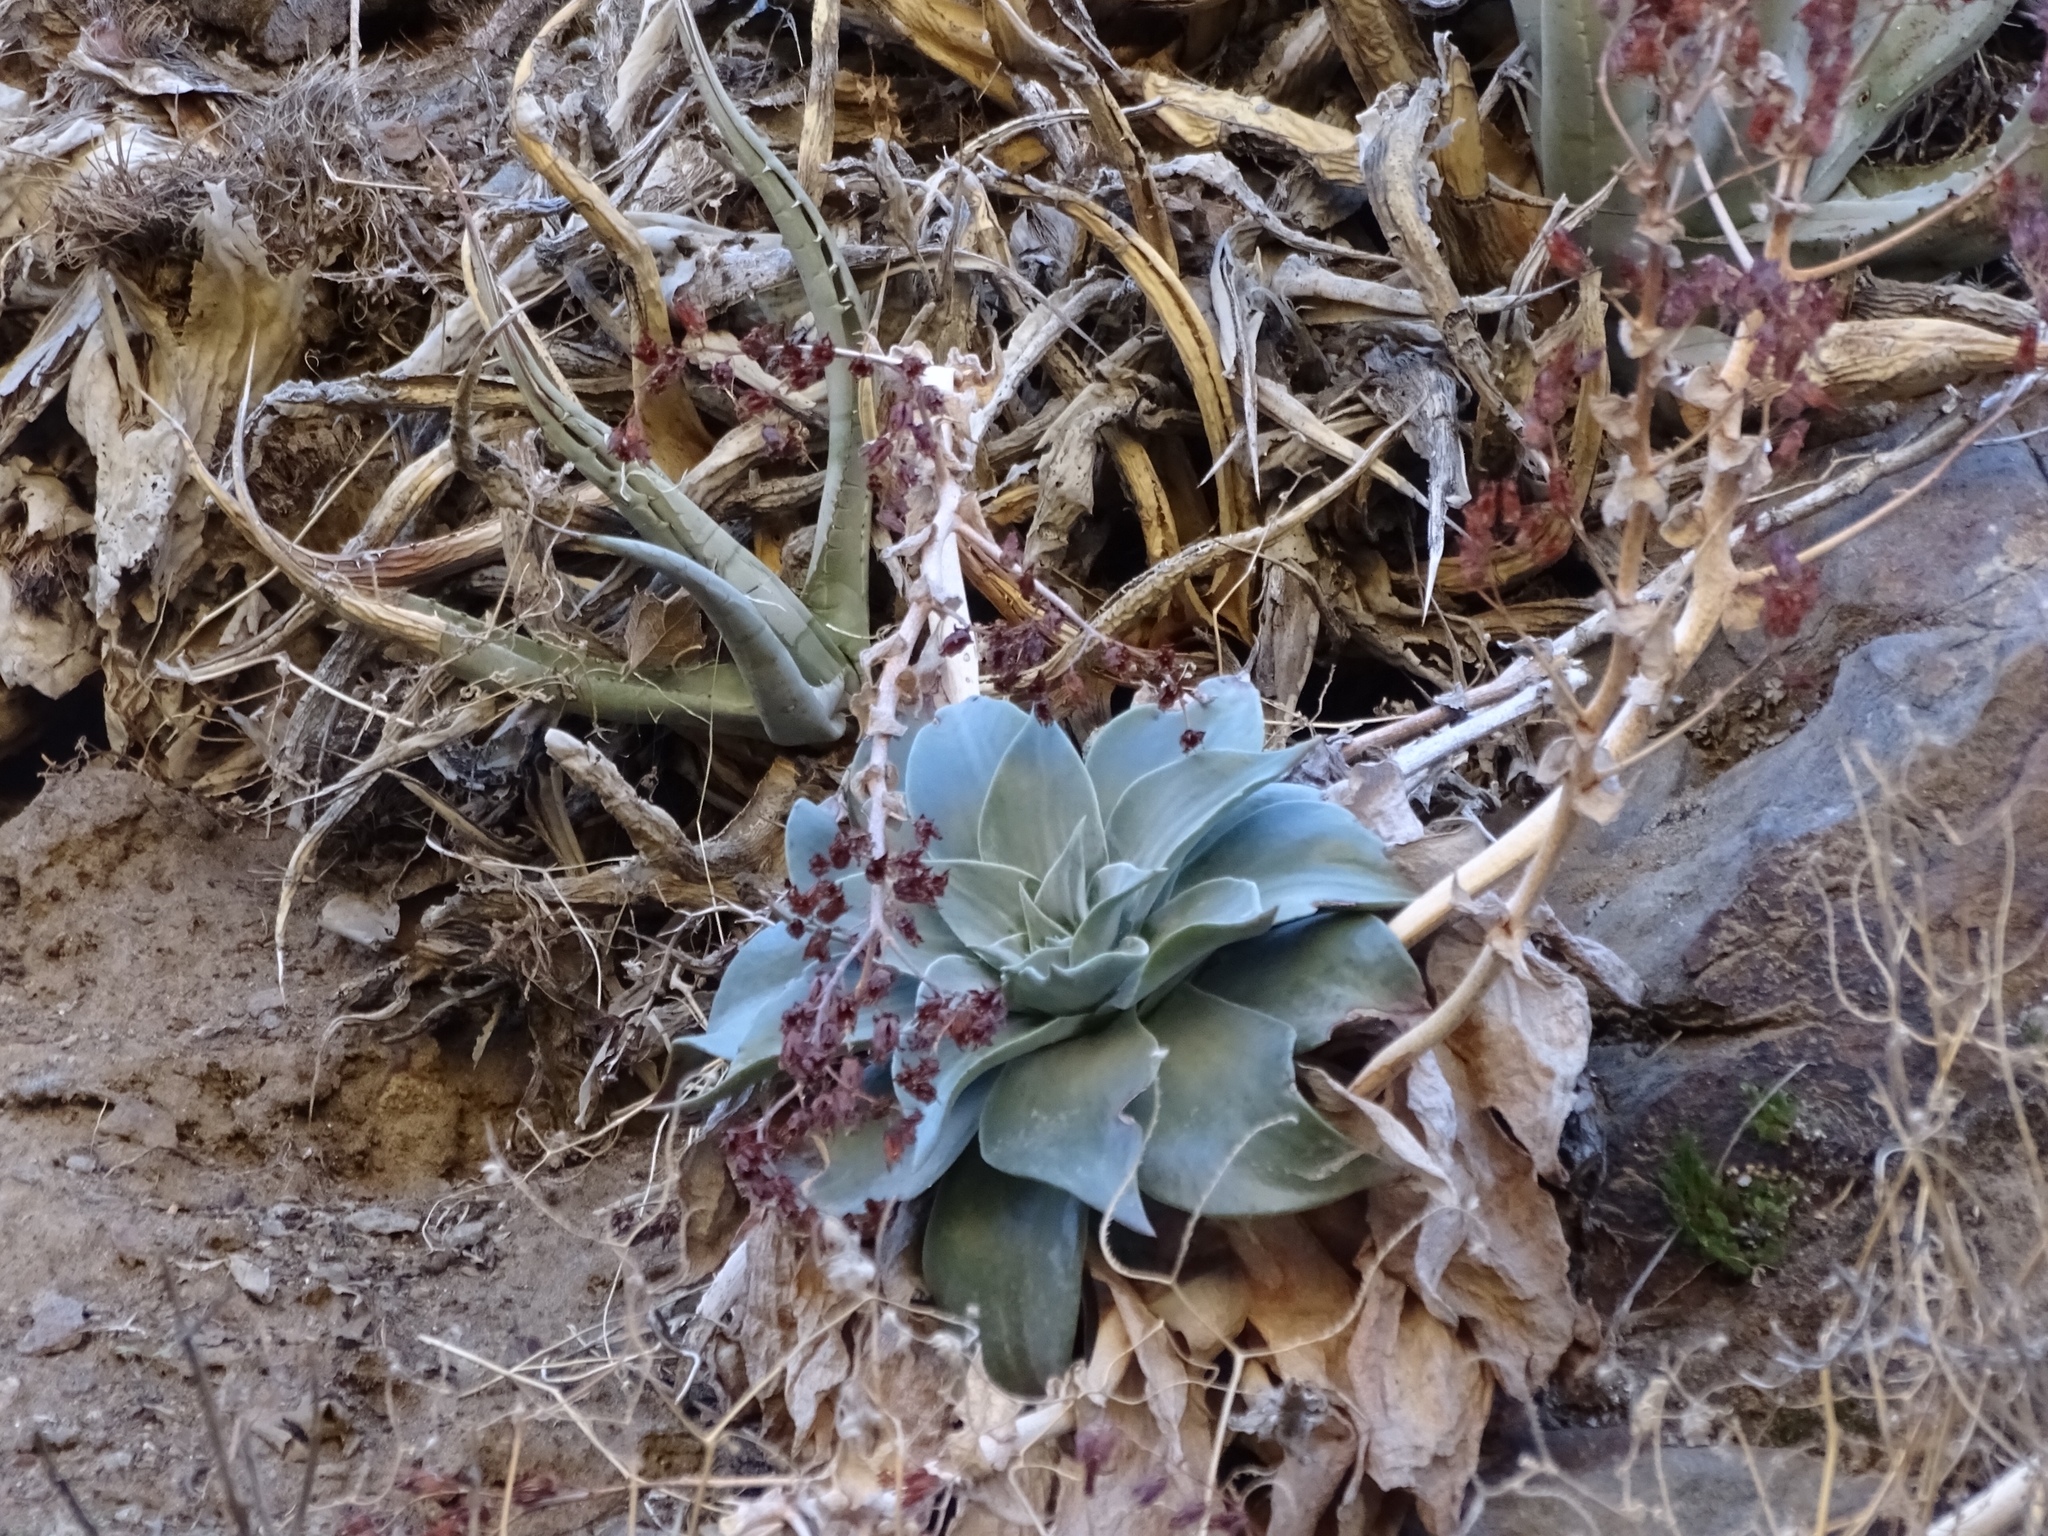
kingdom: Plantae
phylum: Tracheophyta
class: Magnoliopsida
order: Saxifragales
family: Crassulaceae
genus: Dudleya
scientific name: Dudleya arizonica
